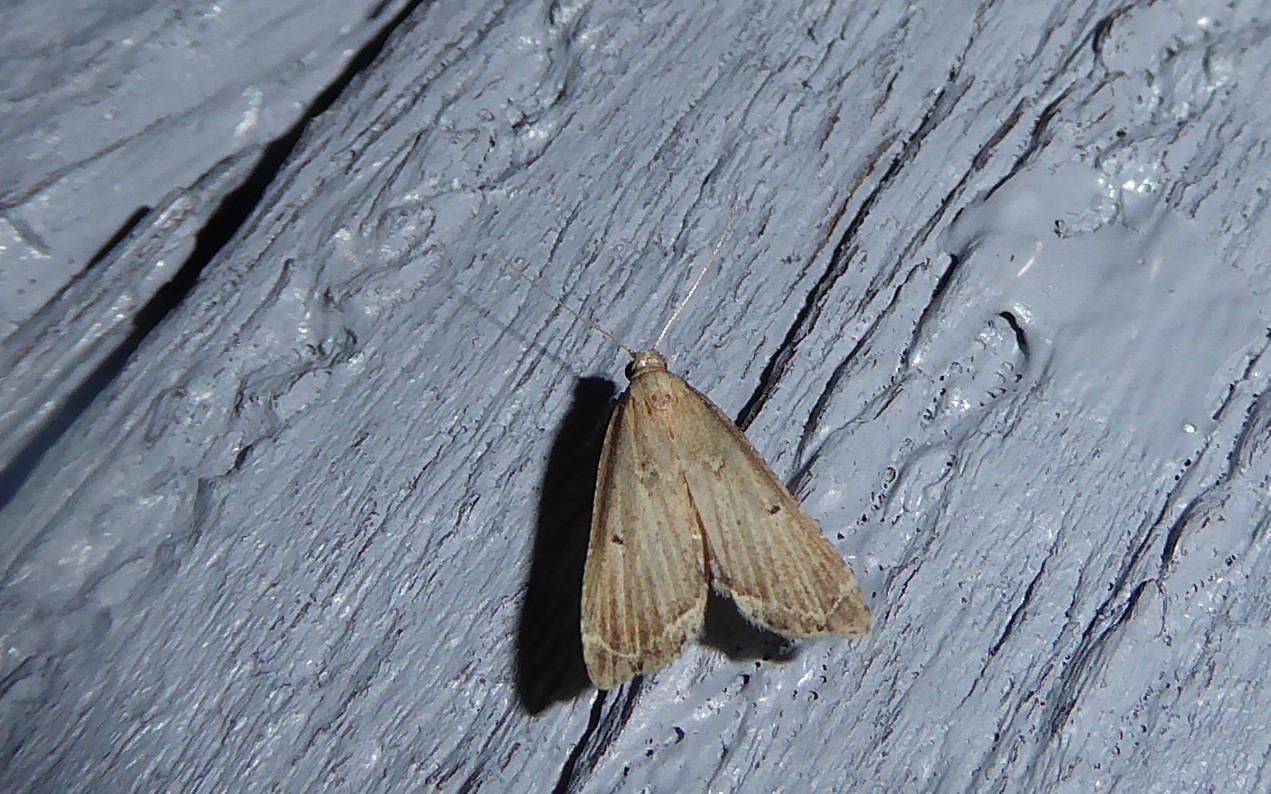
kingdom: Animalia
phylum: Arthropoda
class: Insecta
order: Lepidoptera
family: Crambidae
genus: Diplopseustis
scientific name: Diplopseustis perieresalis
